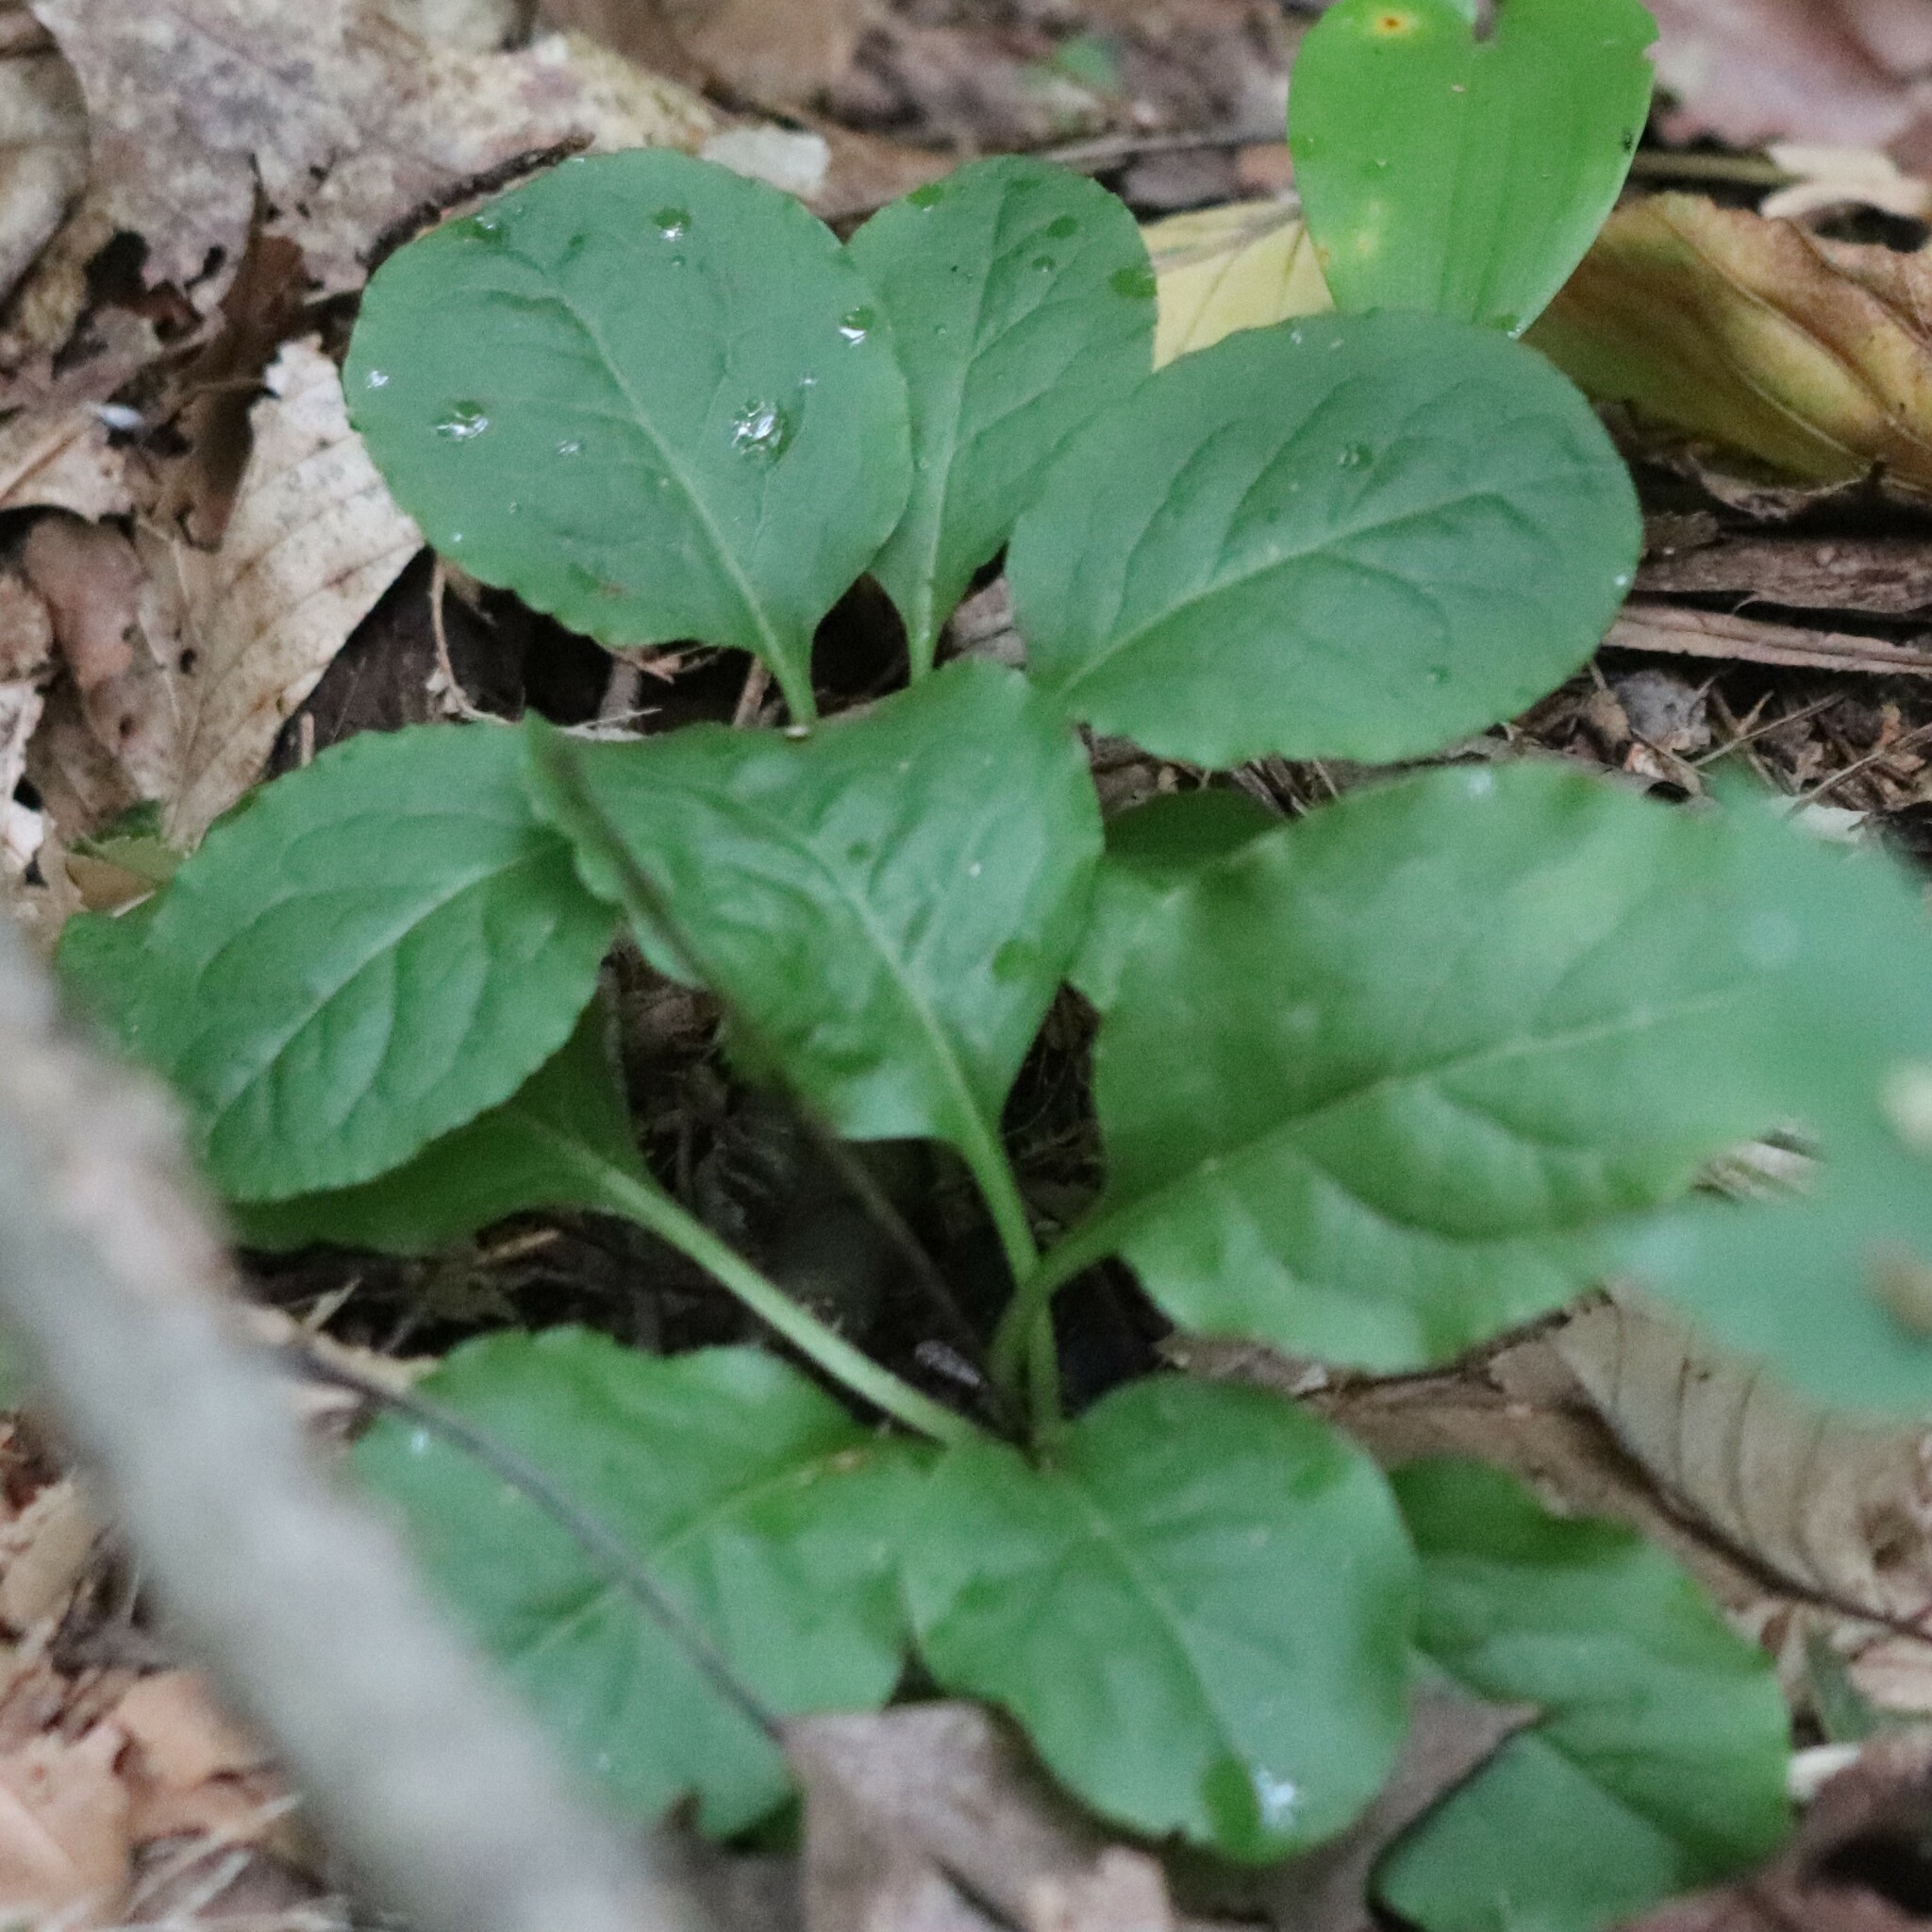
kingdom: Plantae
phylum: Tracheophyta
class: Magnoliopsida
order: Ericales
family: Ericaceae
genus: Pyrola
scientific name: Pyrola elliptica
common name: Shinleaf
